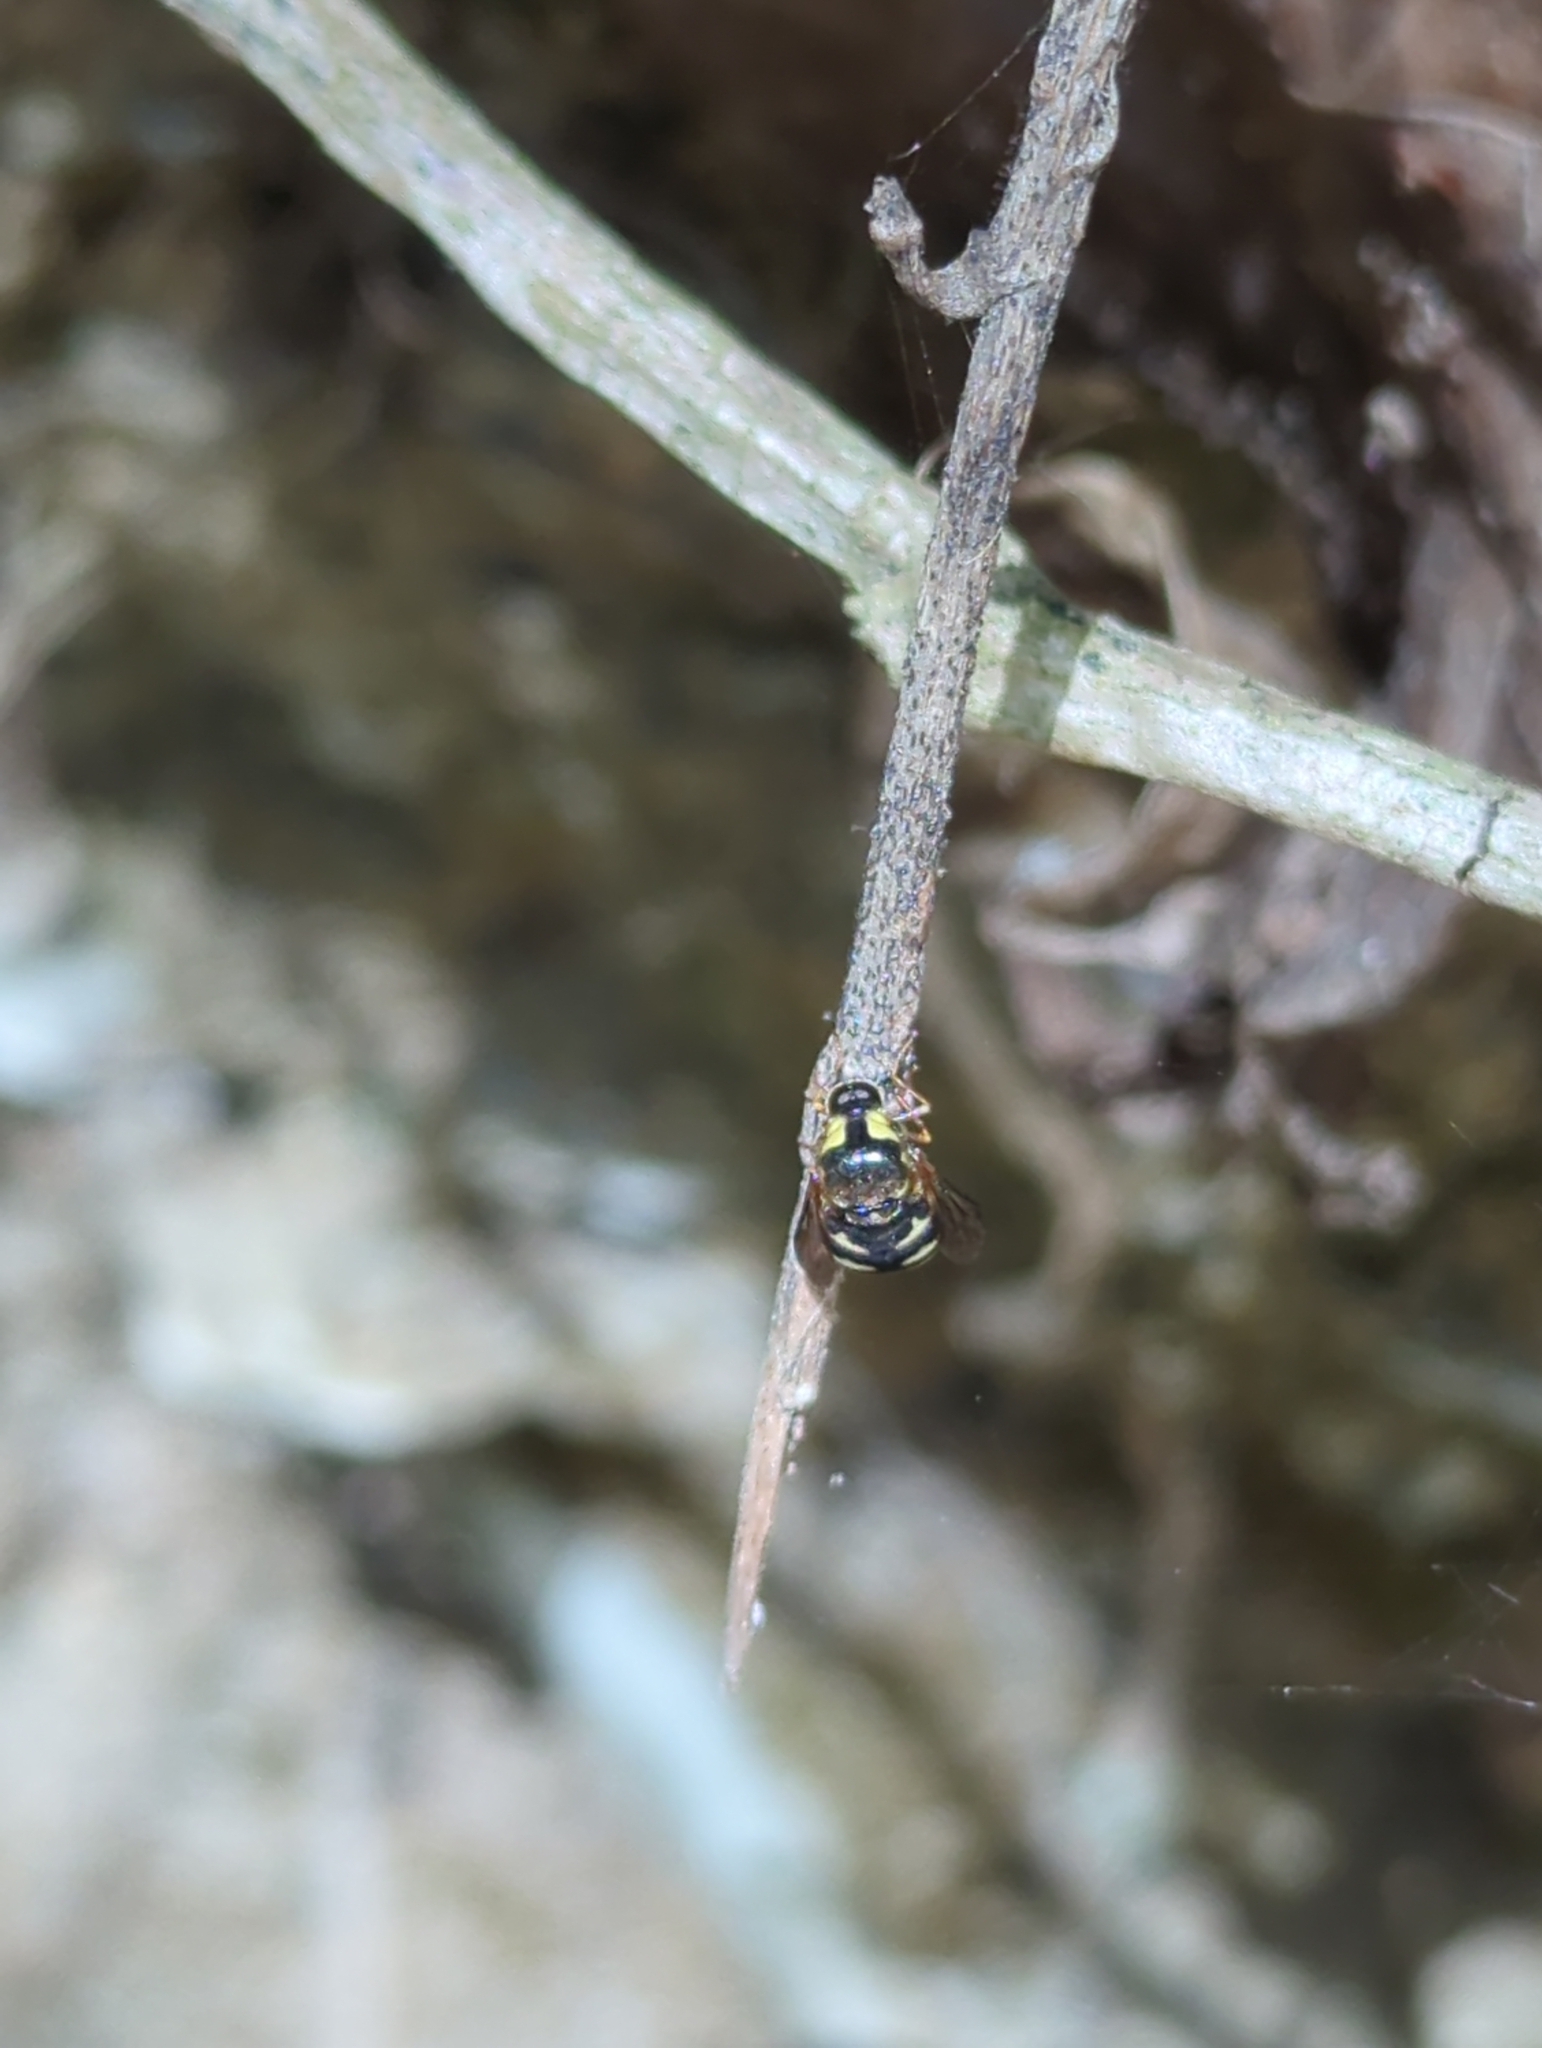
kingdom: Animalia
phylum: Arthropoda
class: Insecta
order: Diptera
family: Acroceridae
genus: Cyrtus
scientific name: Cyrtus gibbus
